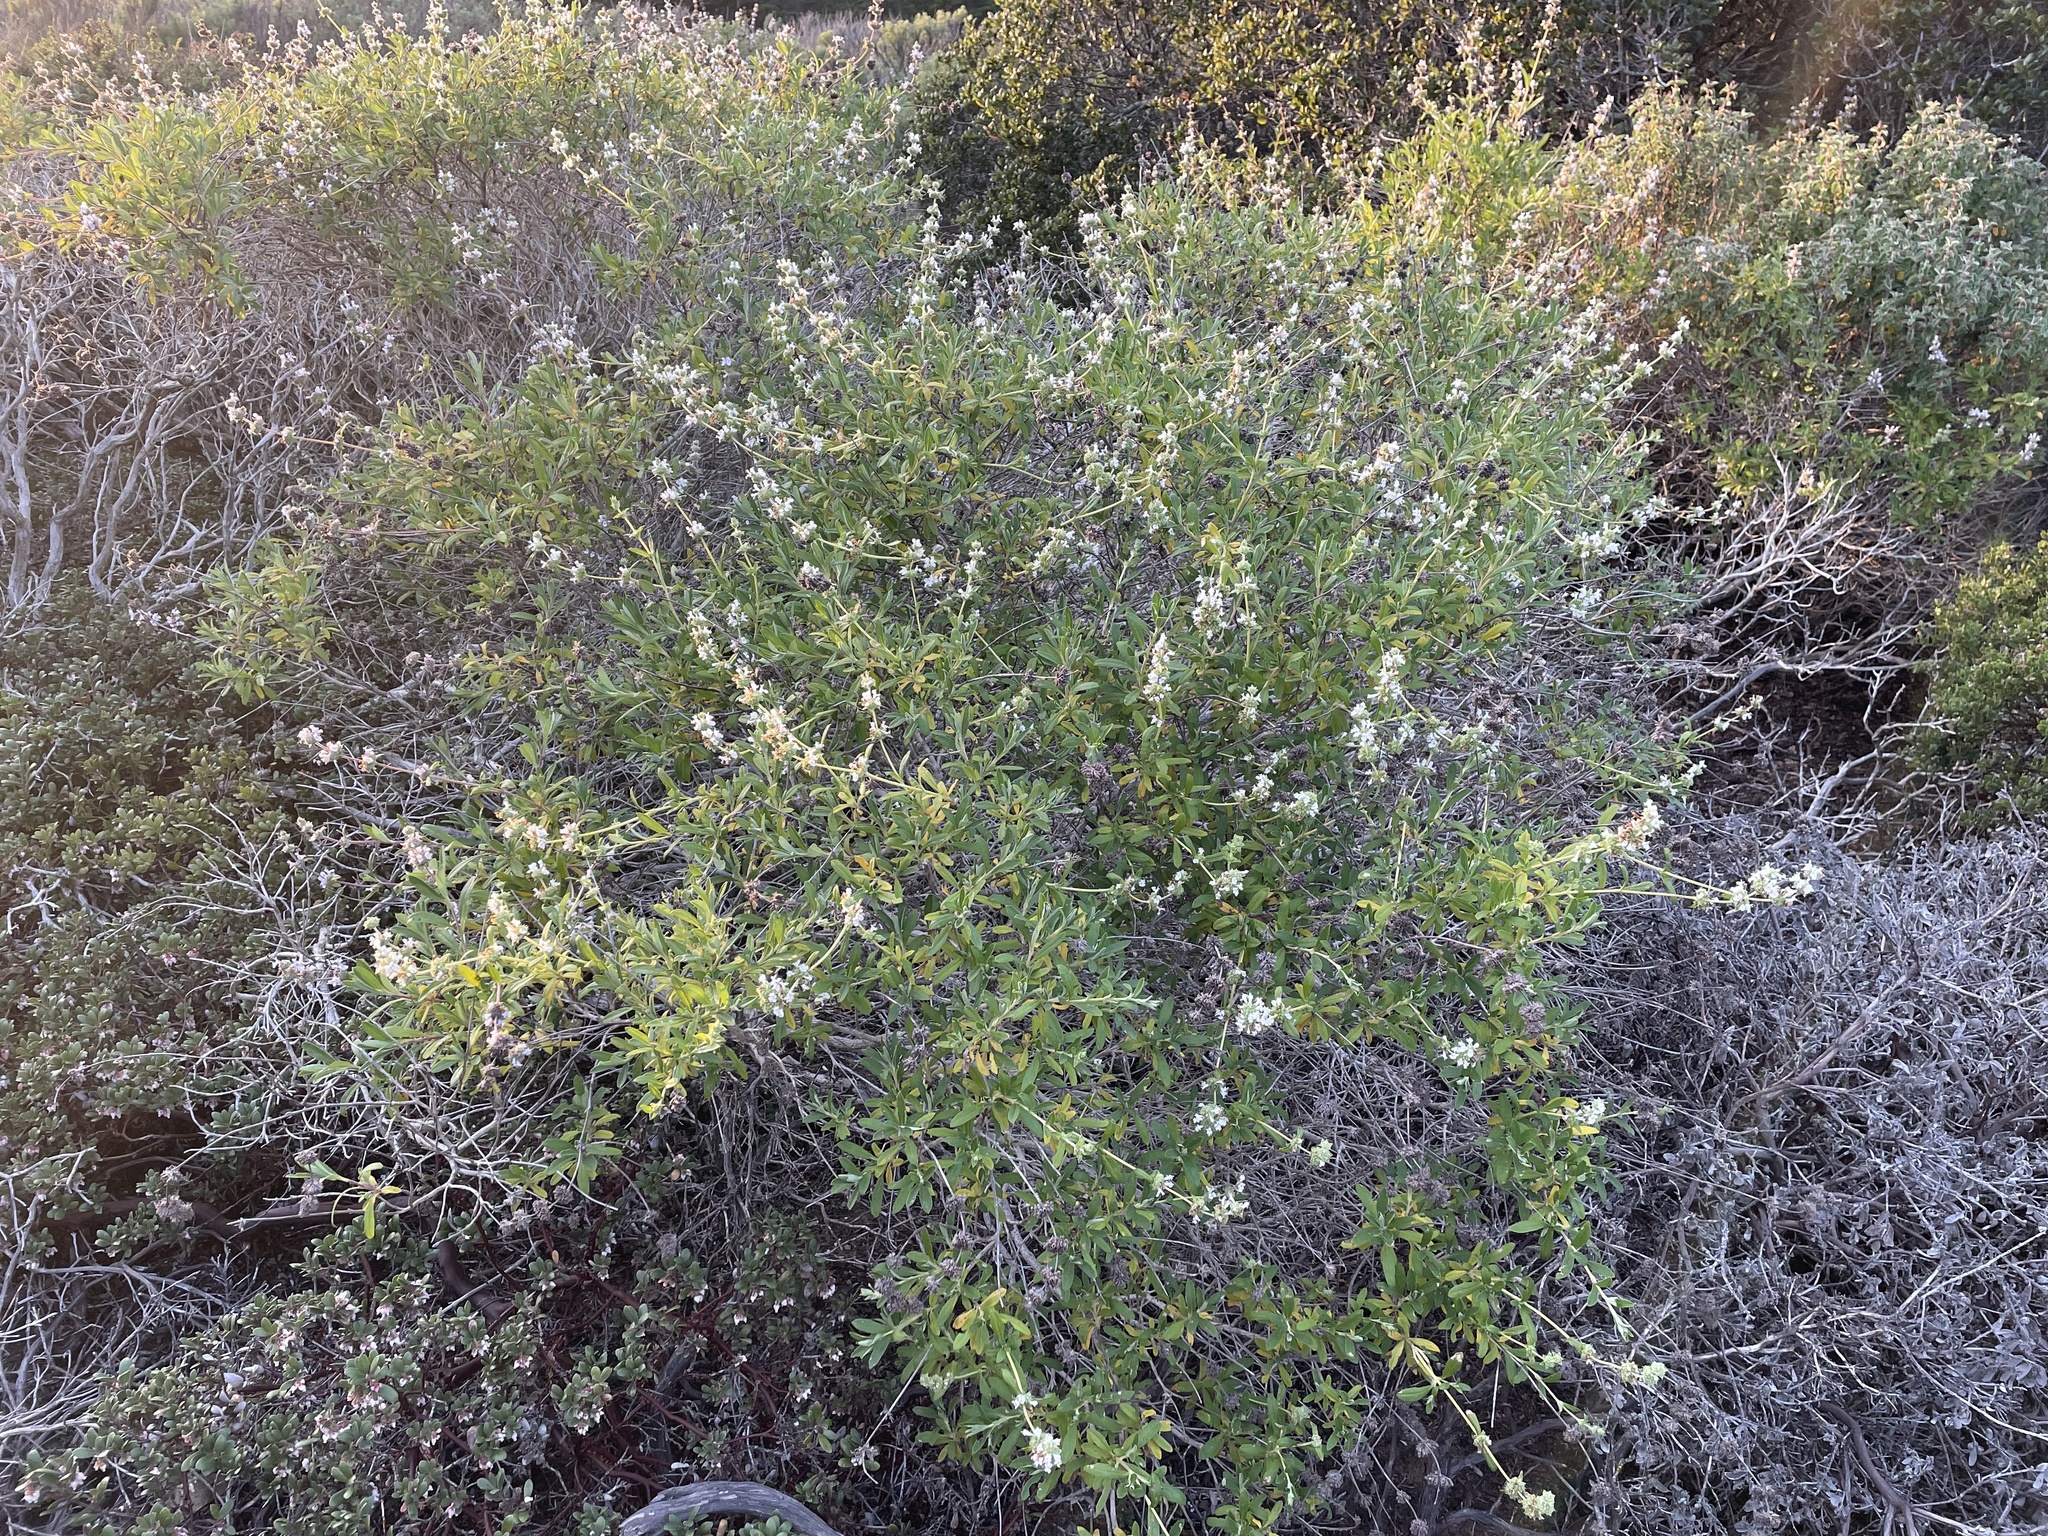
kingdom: Plantae
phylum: Tracheophyta
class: Magnoliopsida
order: Lamiales
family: Lamiaceae
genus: Salvia
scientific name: Salvia mellifera
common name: Black sage
